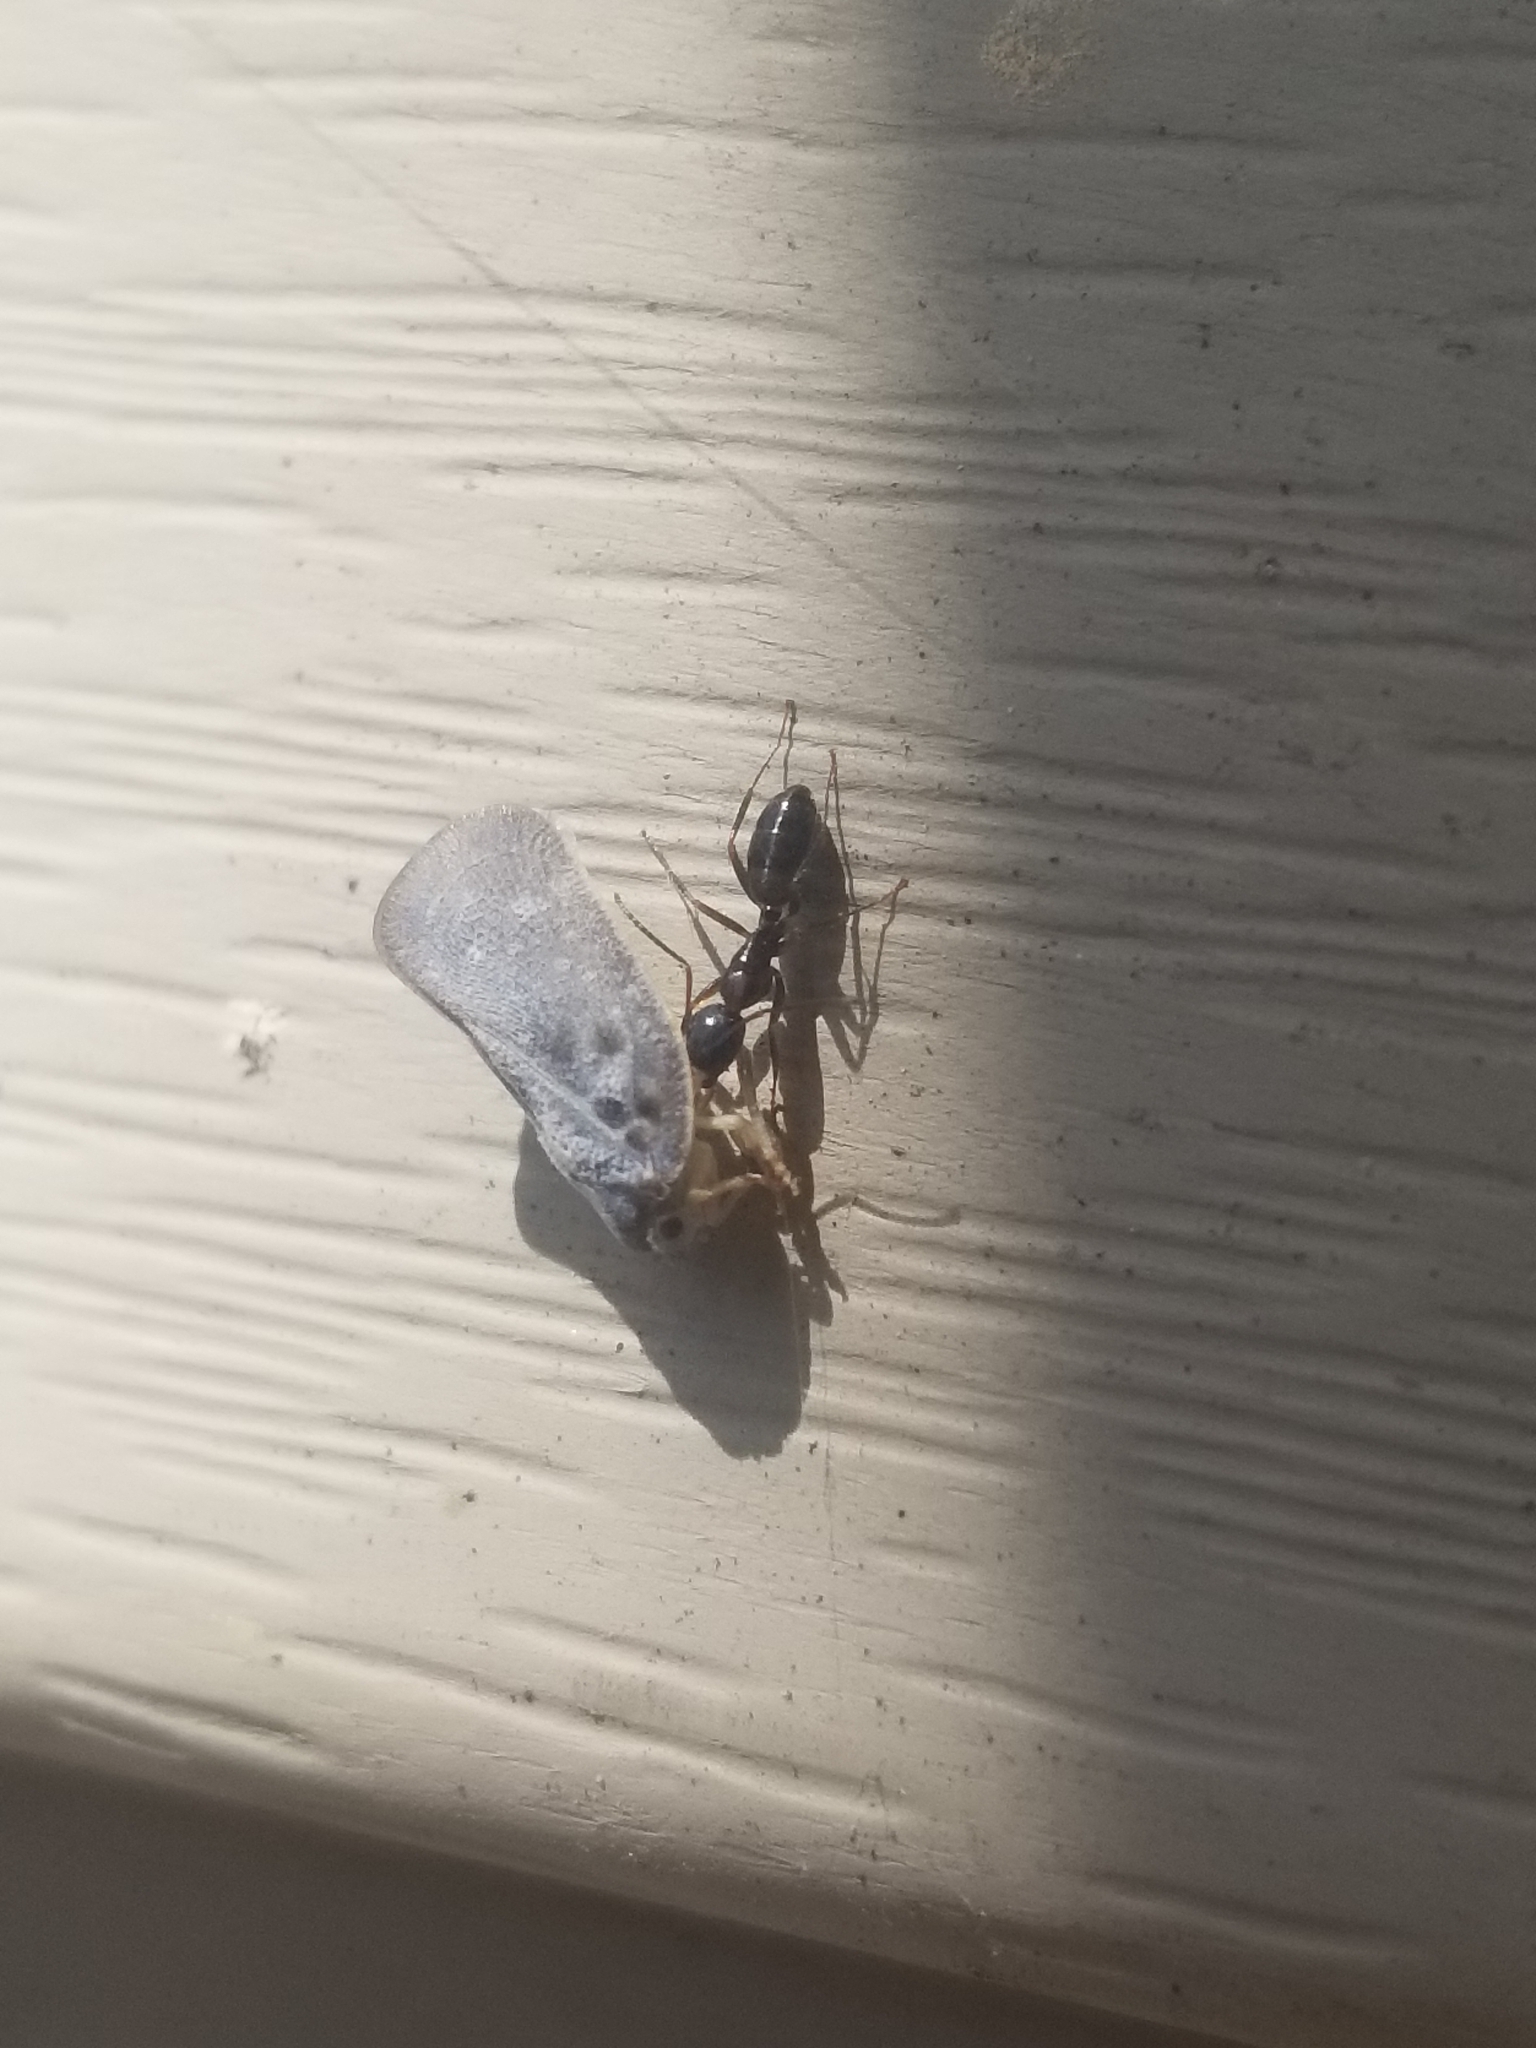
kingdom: Animalia
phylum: Arthropoda
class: Insecta
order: Hemiptera
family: Flatidae
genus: Metcalfa
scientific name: Metcalfa pruinosa
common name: Citrus flatid planthopper
